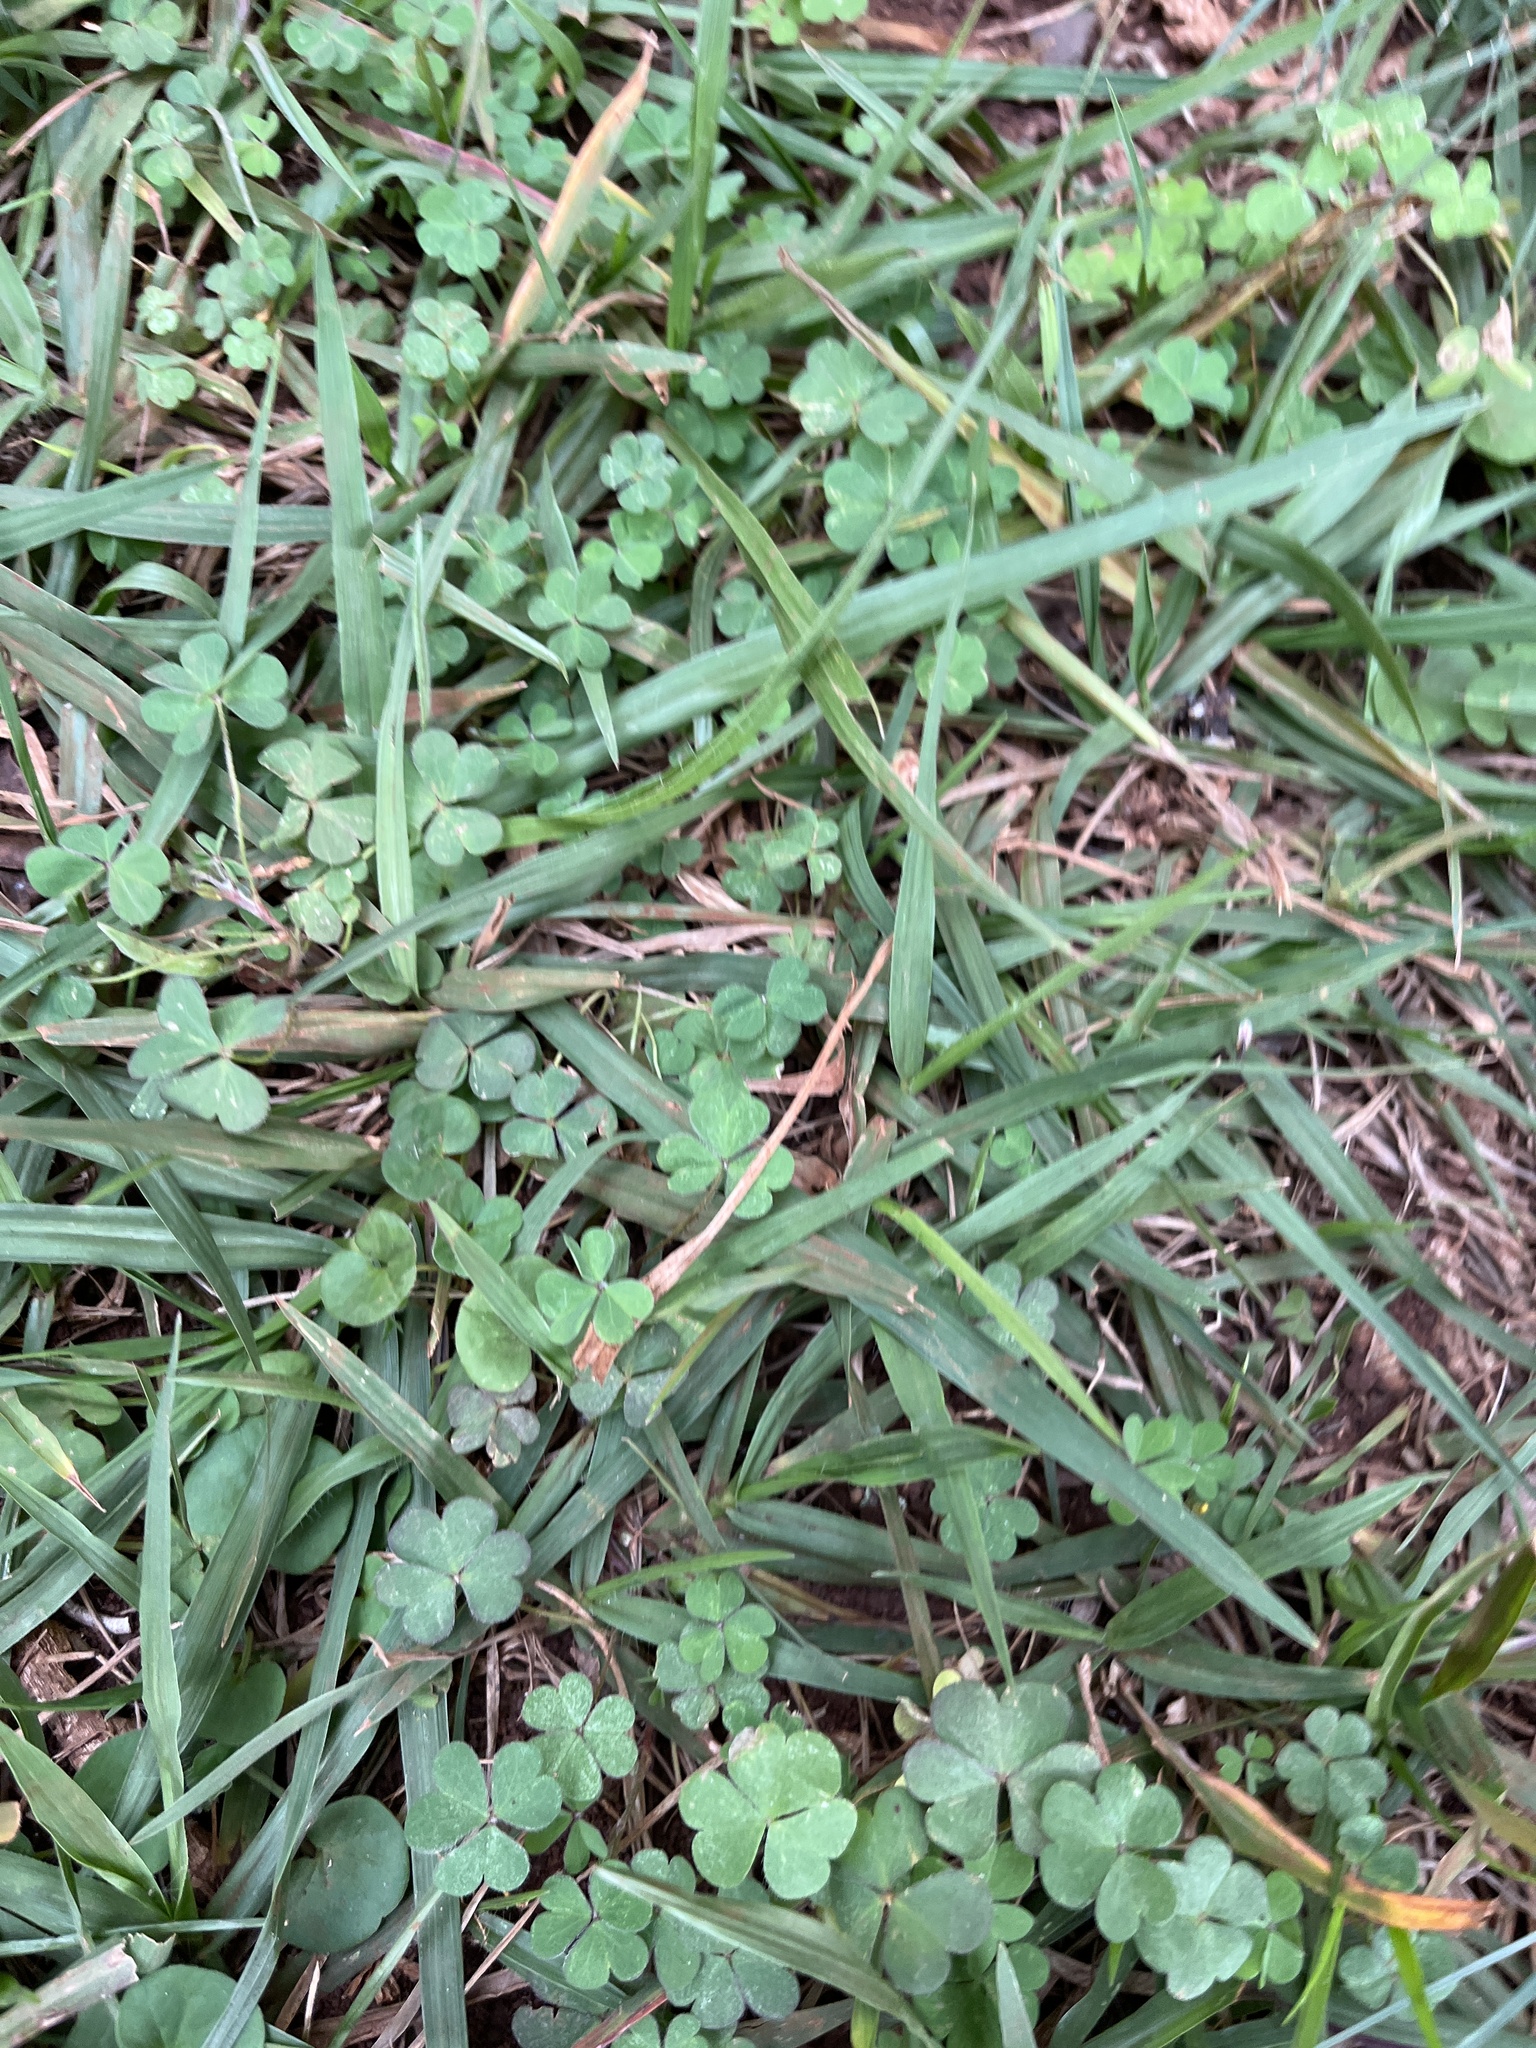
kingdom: Plantae
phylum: Tracheophyta
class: Magnoliopsida
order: Oxalidales
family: Oxalidaceae
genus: Oxalis
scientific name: Oxalis corniculata
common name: Procumbent yellow-sorrel
